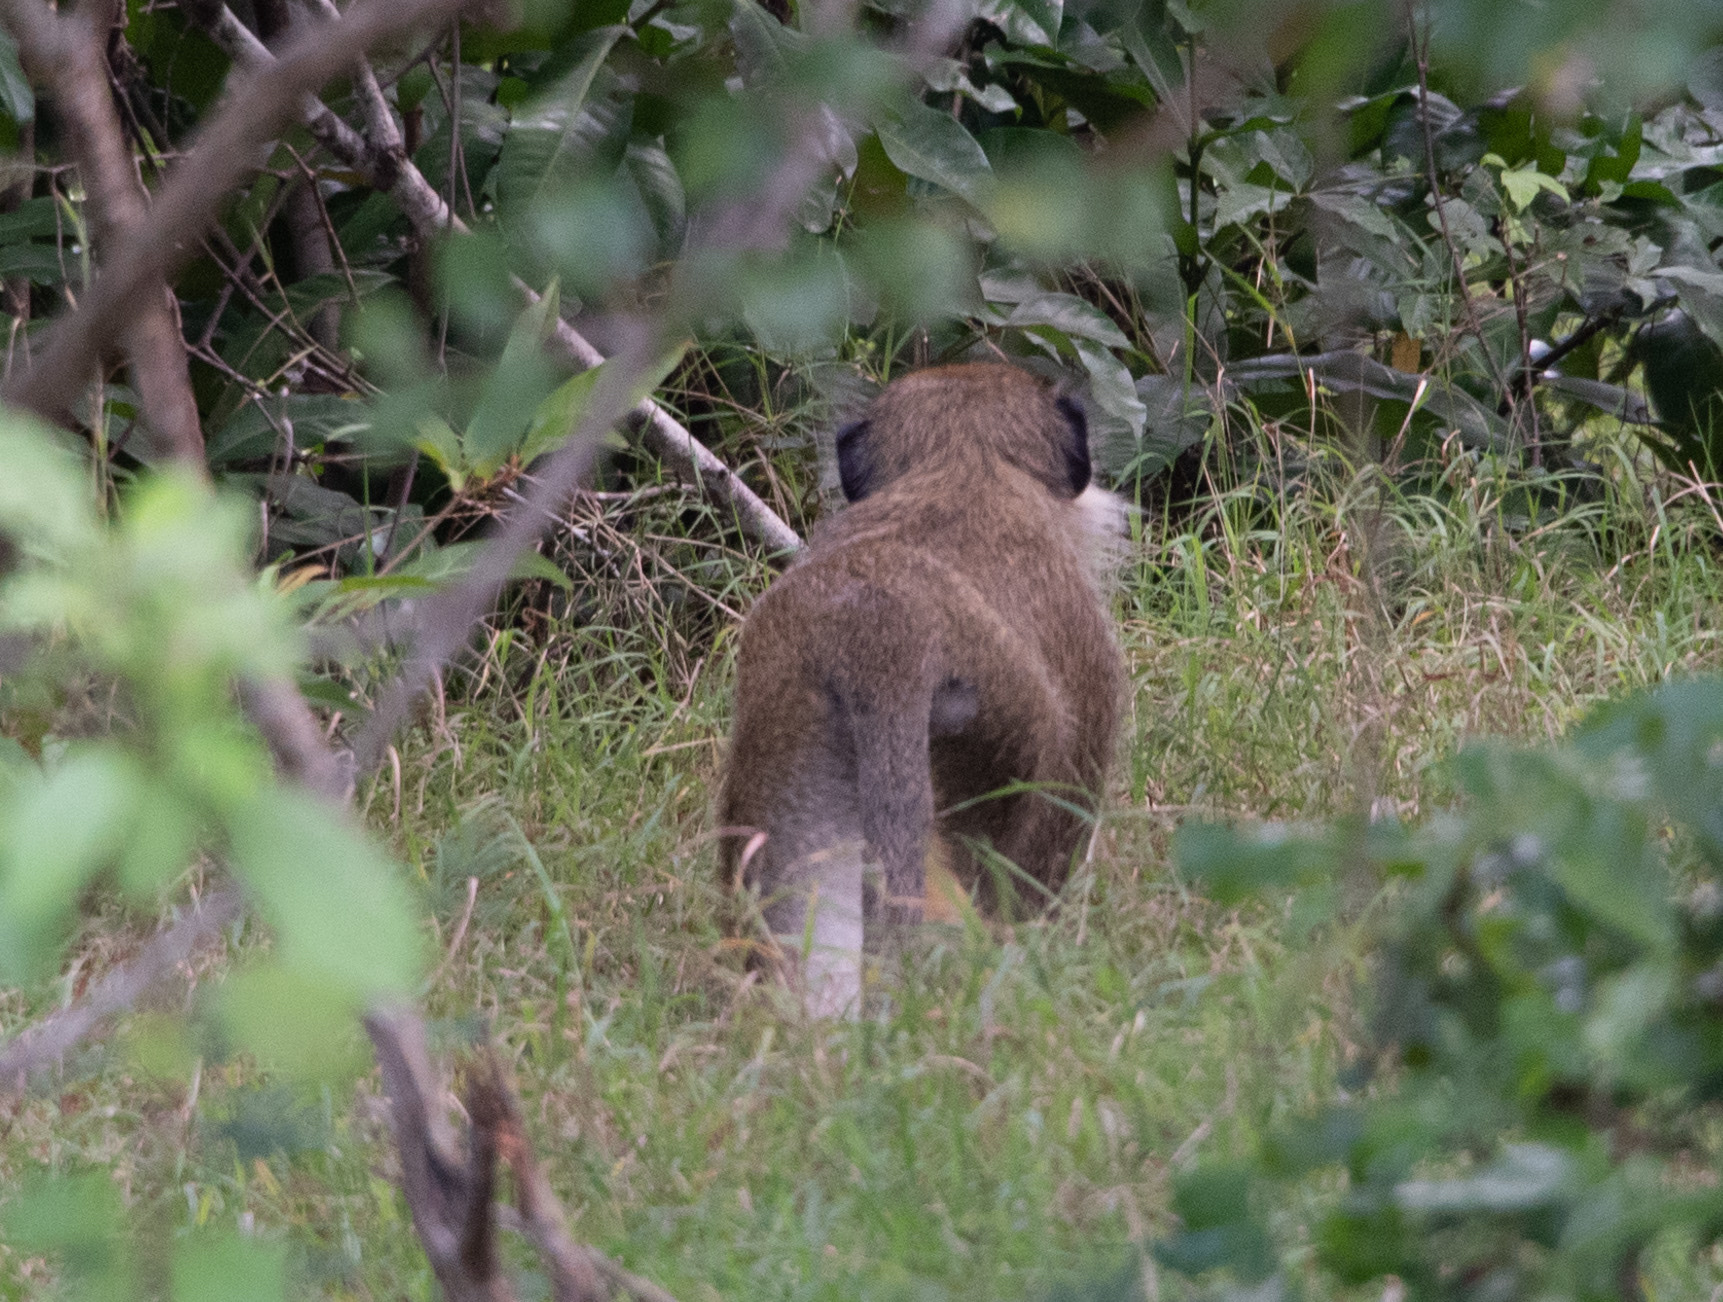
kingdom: Animalia
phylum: Chordata
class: Mammalia
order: Primates
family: Cercopithecidae
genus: Chlorocebus
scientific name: Chlorocebus sabaeus
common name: Green monkey
